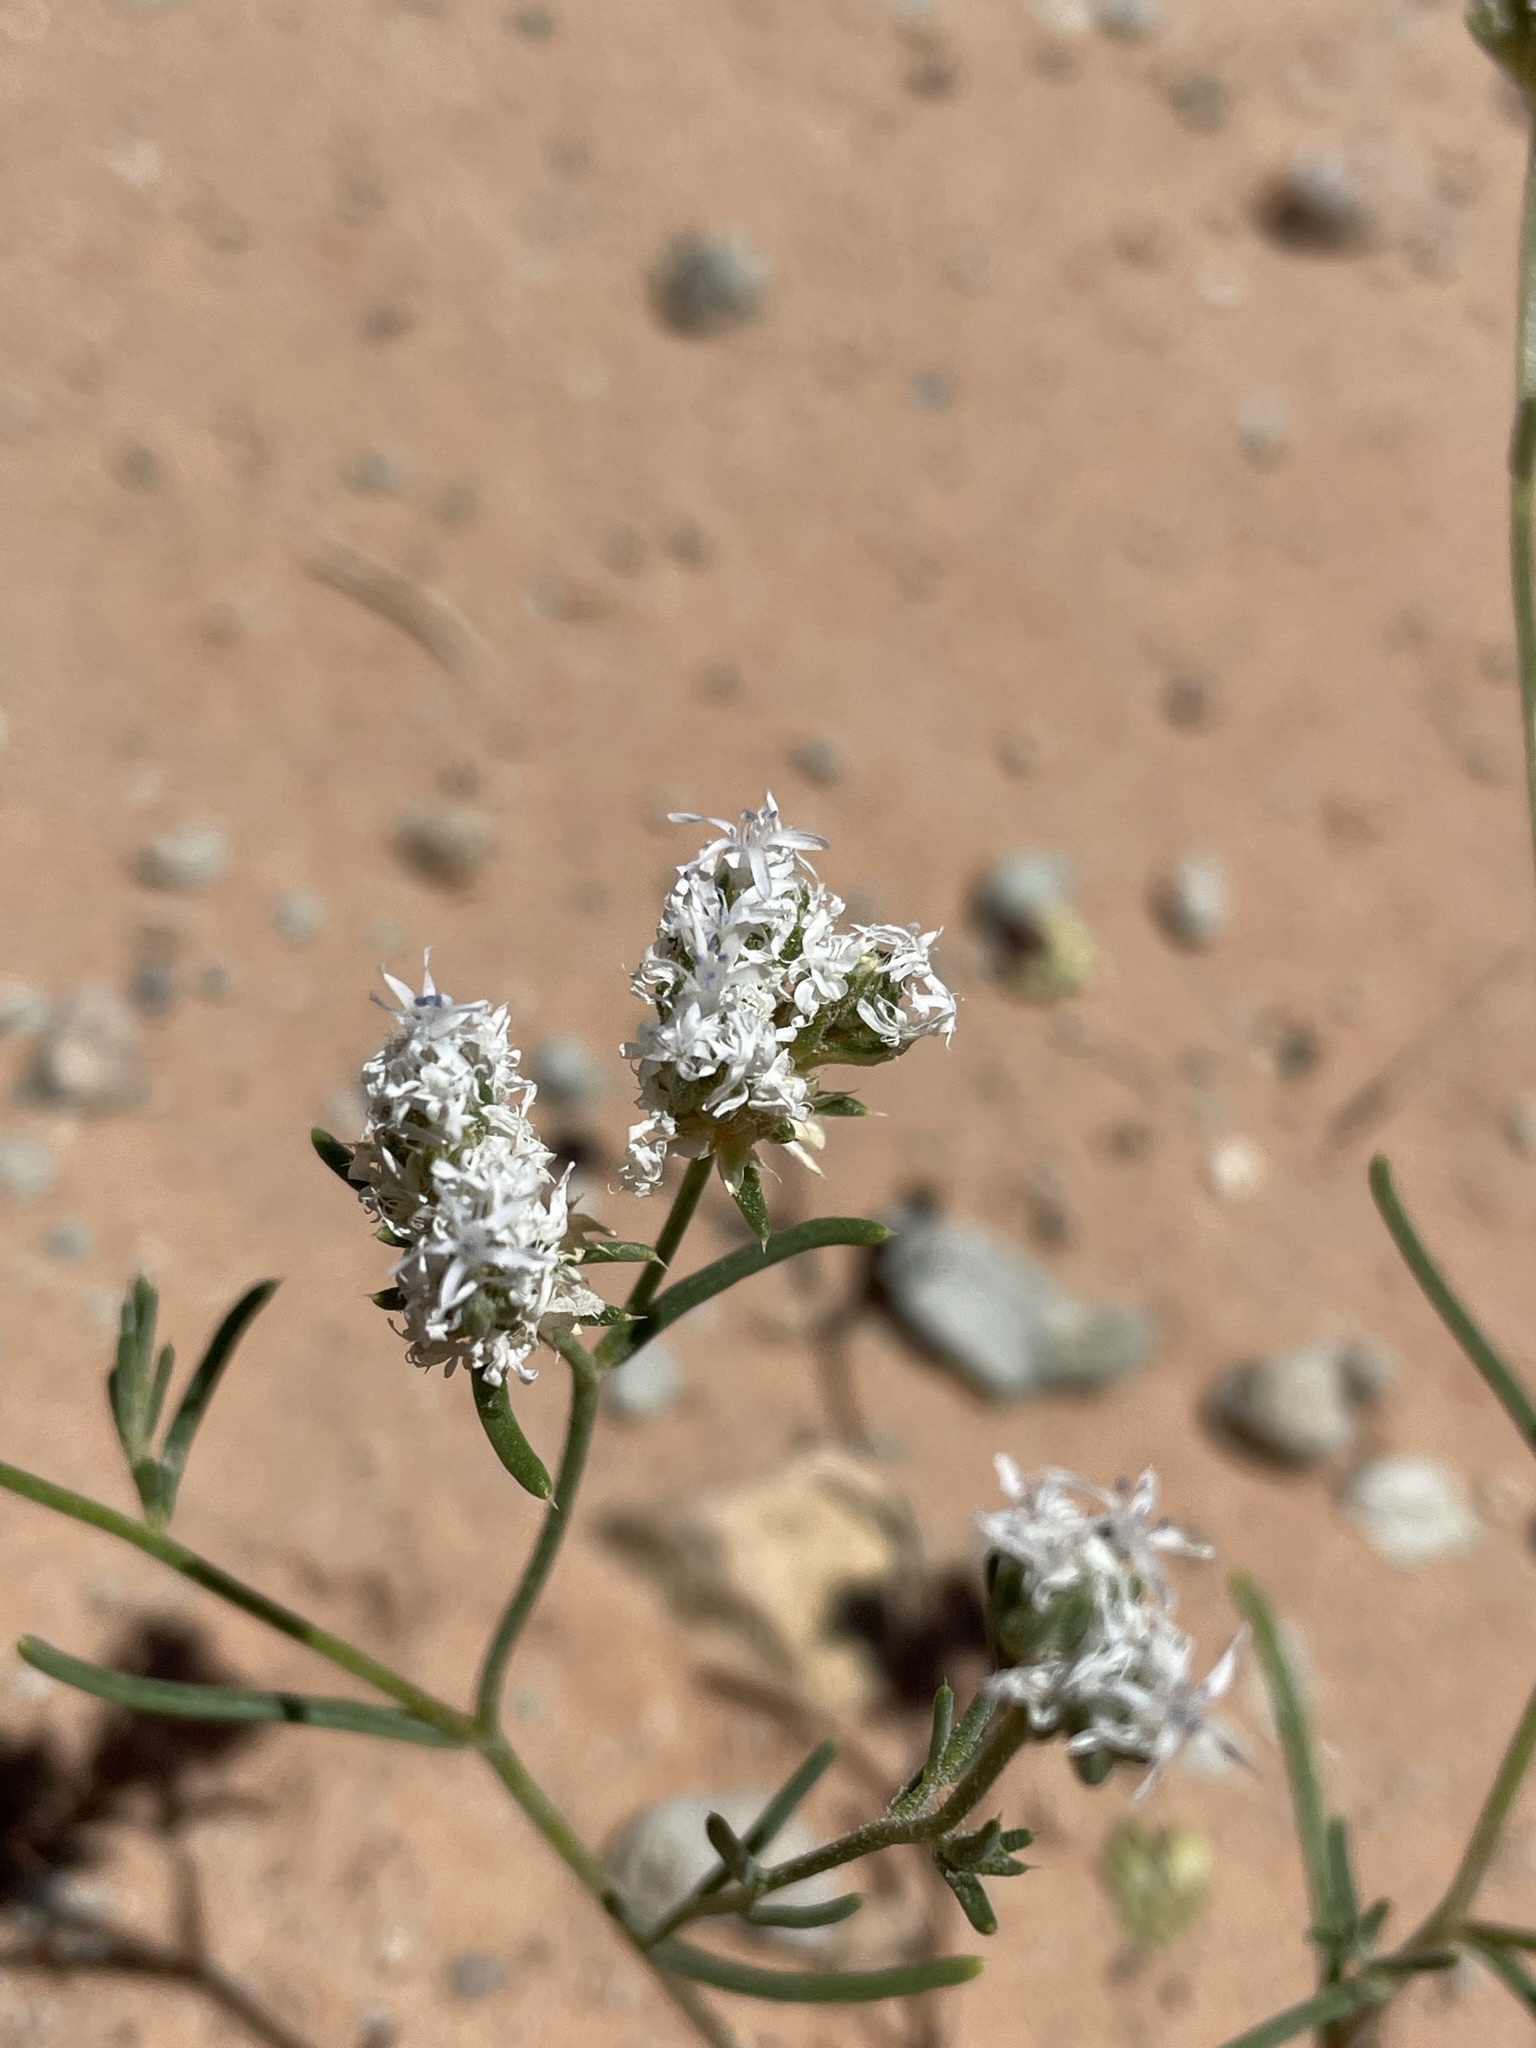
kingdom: Plantae
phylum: Tracheophyta
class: Magnoliopsida
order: Ericales
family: Polemoniaceae
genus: Ipomopsis
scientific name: Ipomopsis gunnisonii
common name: Sand-dune gilia
